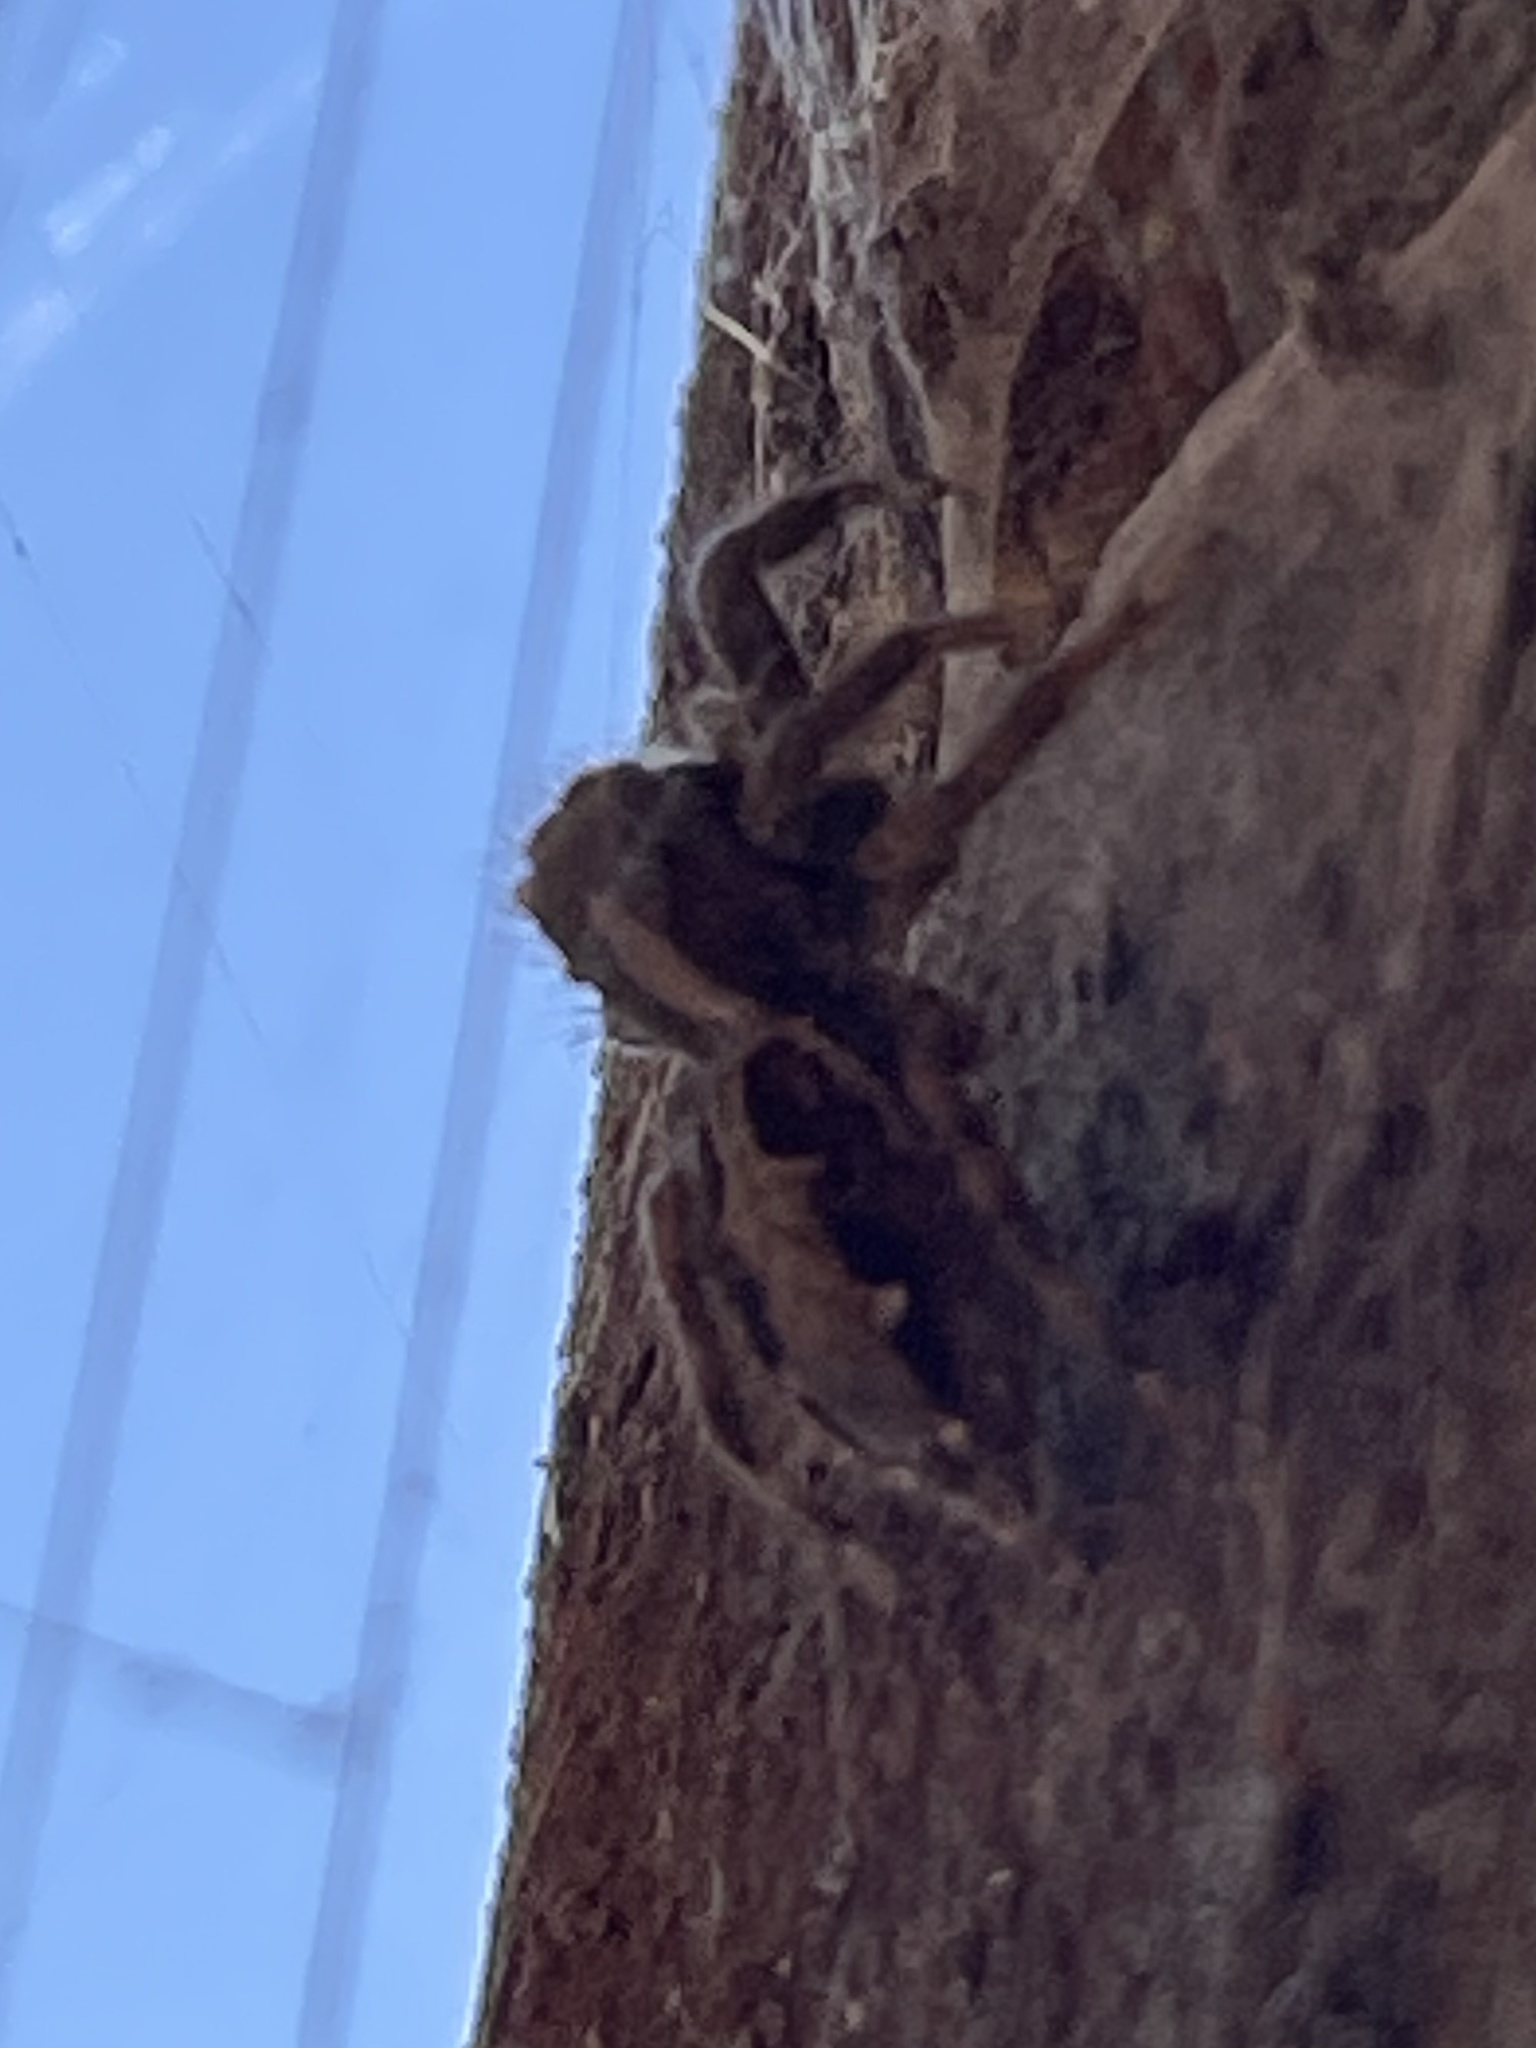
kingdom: Animalia
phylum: Arthropoda
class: Arachnida
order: Araneae
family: Salticidae
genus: Plexippus
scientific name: Plexippus paykulli
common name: Pantropical jumper
